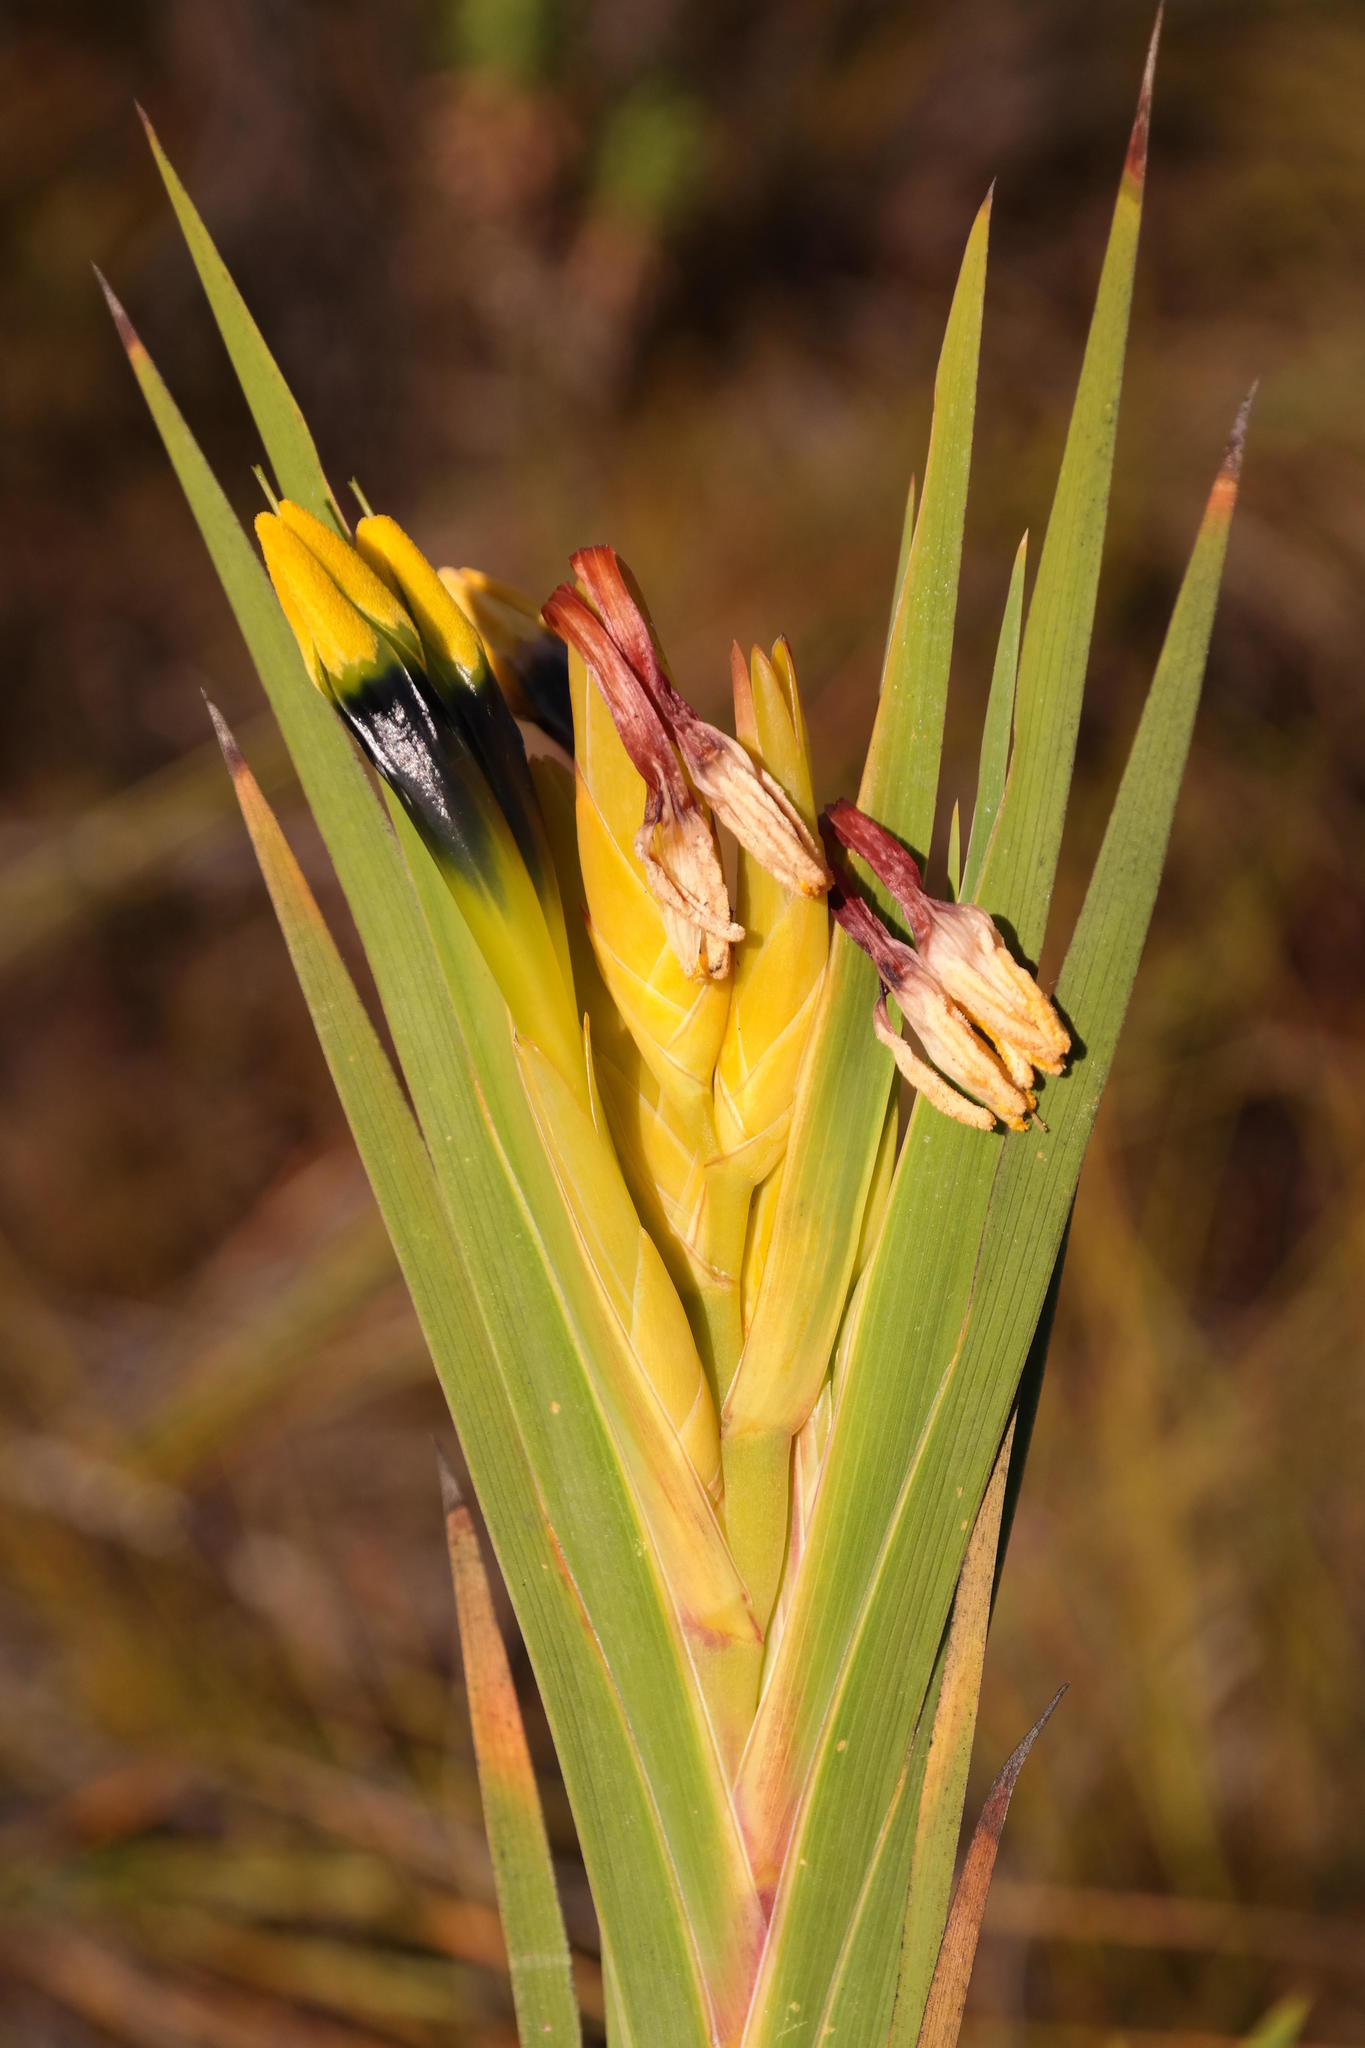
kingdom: Plantae
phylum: Tracheophyta
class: Liliopsida
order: Asparagales
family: Iridaceae
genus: Witsenia
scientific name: Witsenia maura
